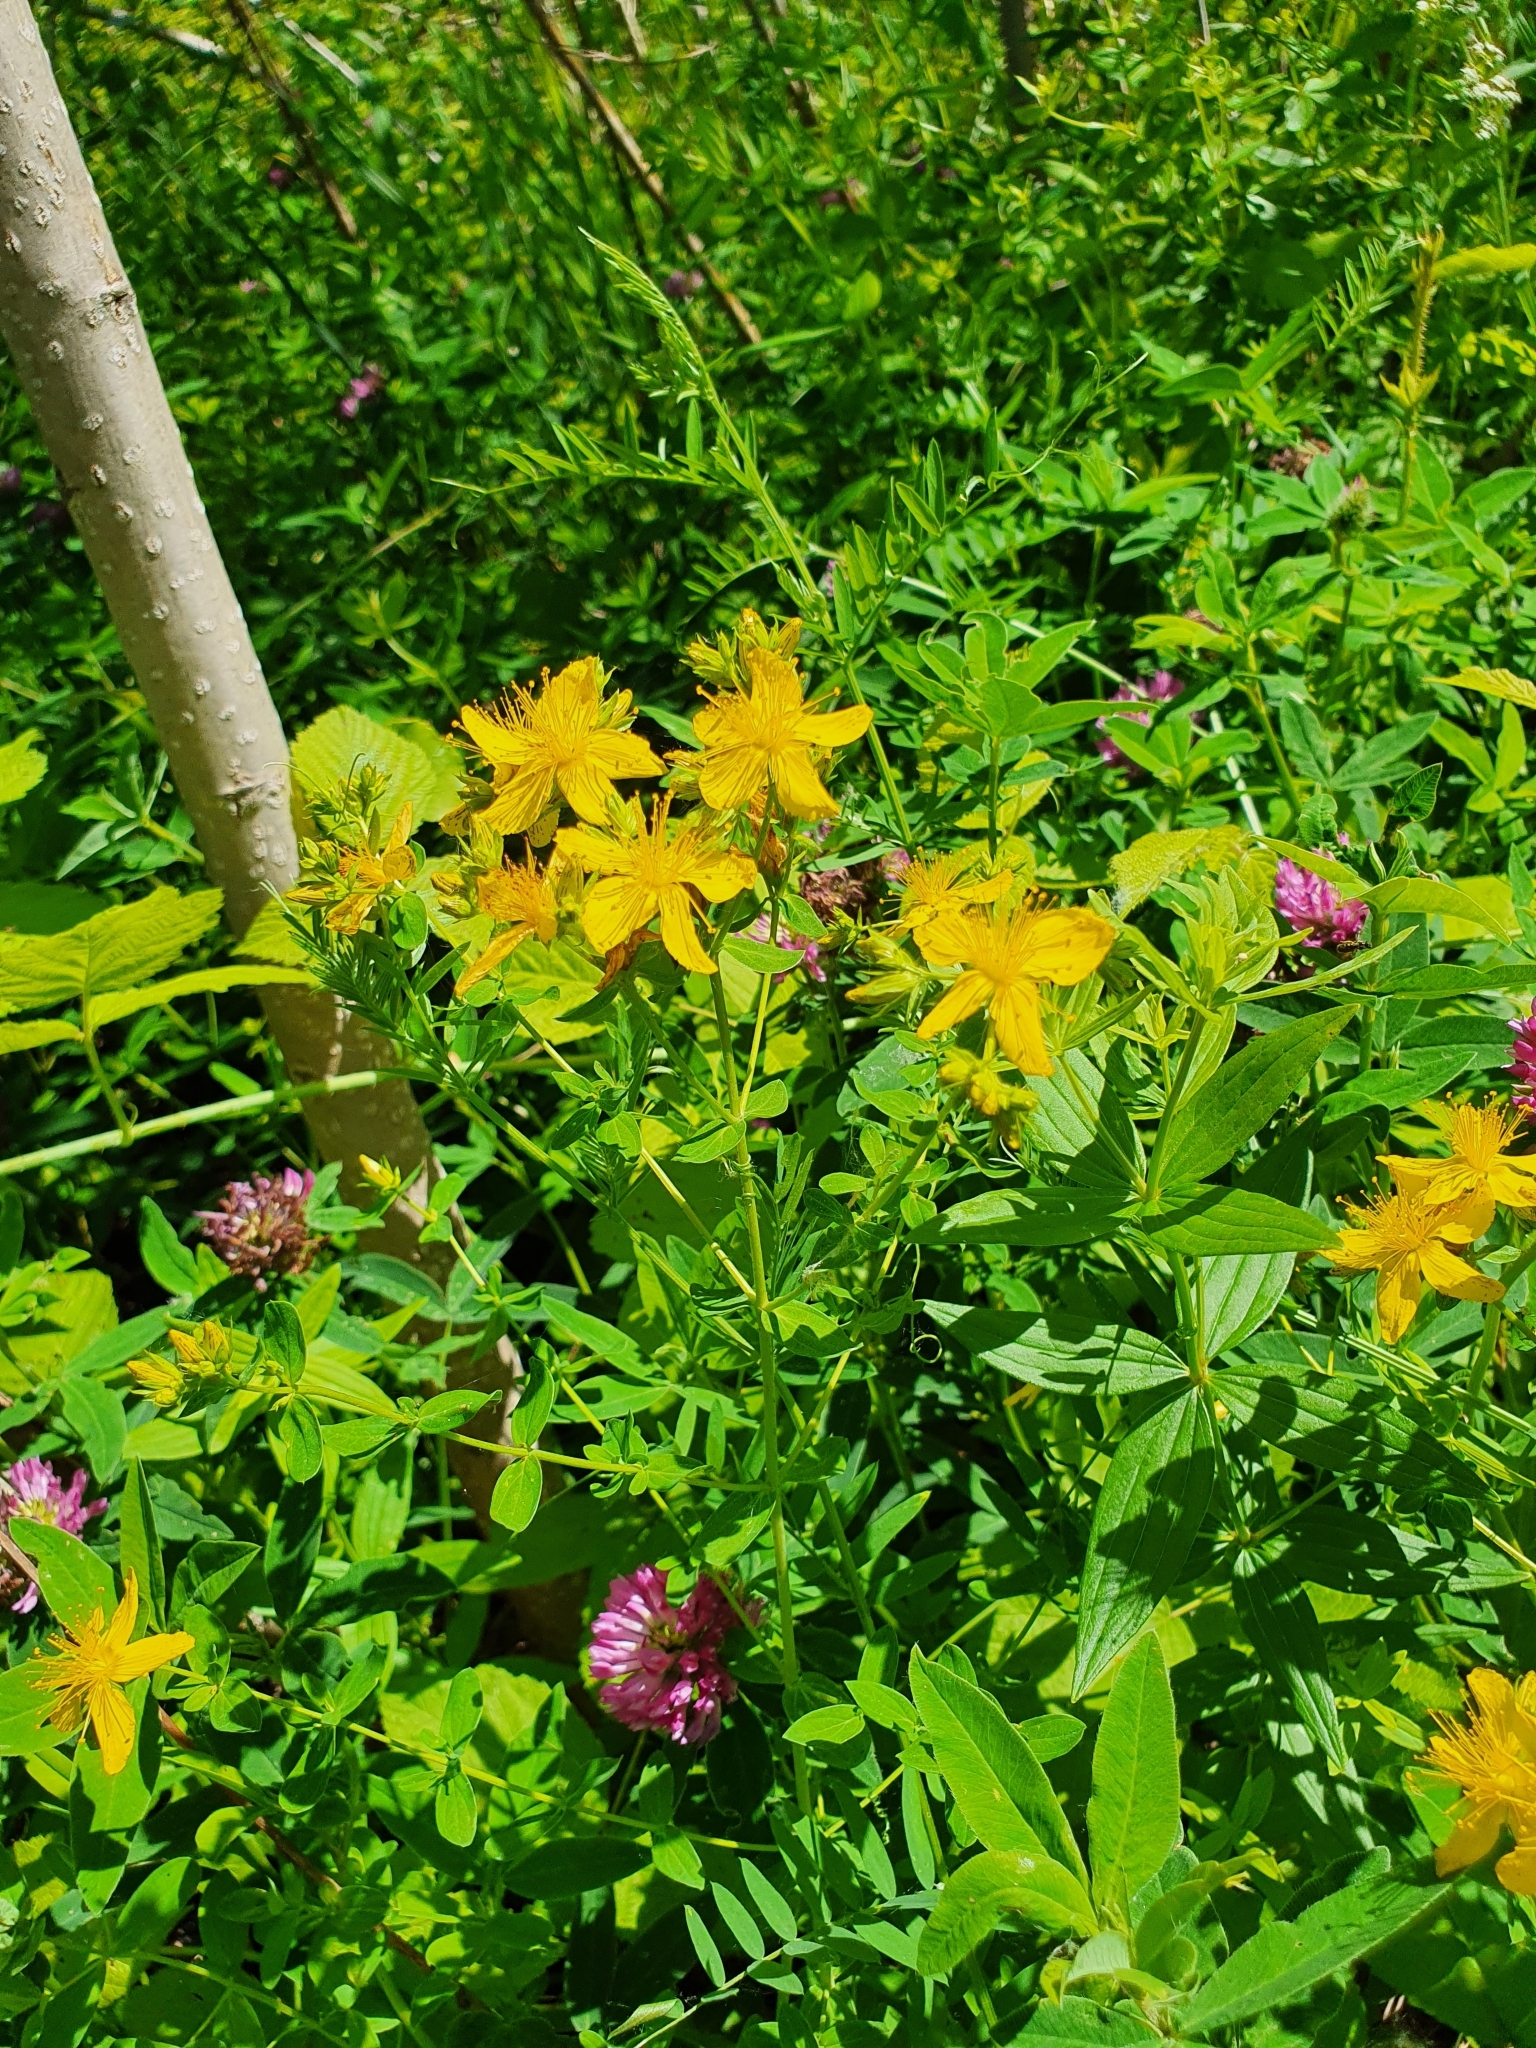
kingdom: Plantae
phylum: Tracheophyta
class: Magnoliopsida
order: Malpighiales
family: Hypericaceae
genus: Hypericum
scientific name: Hypericum perforatum
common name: Common st. johnswort
